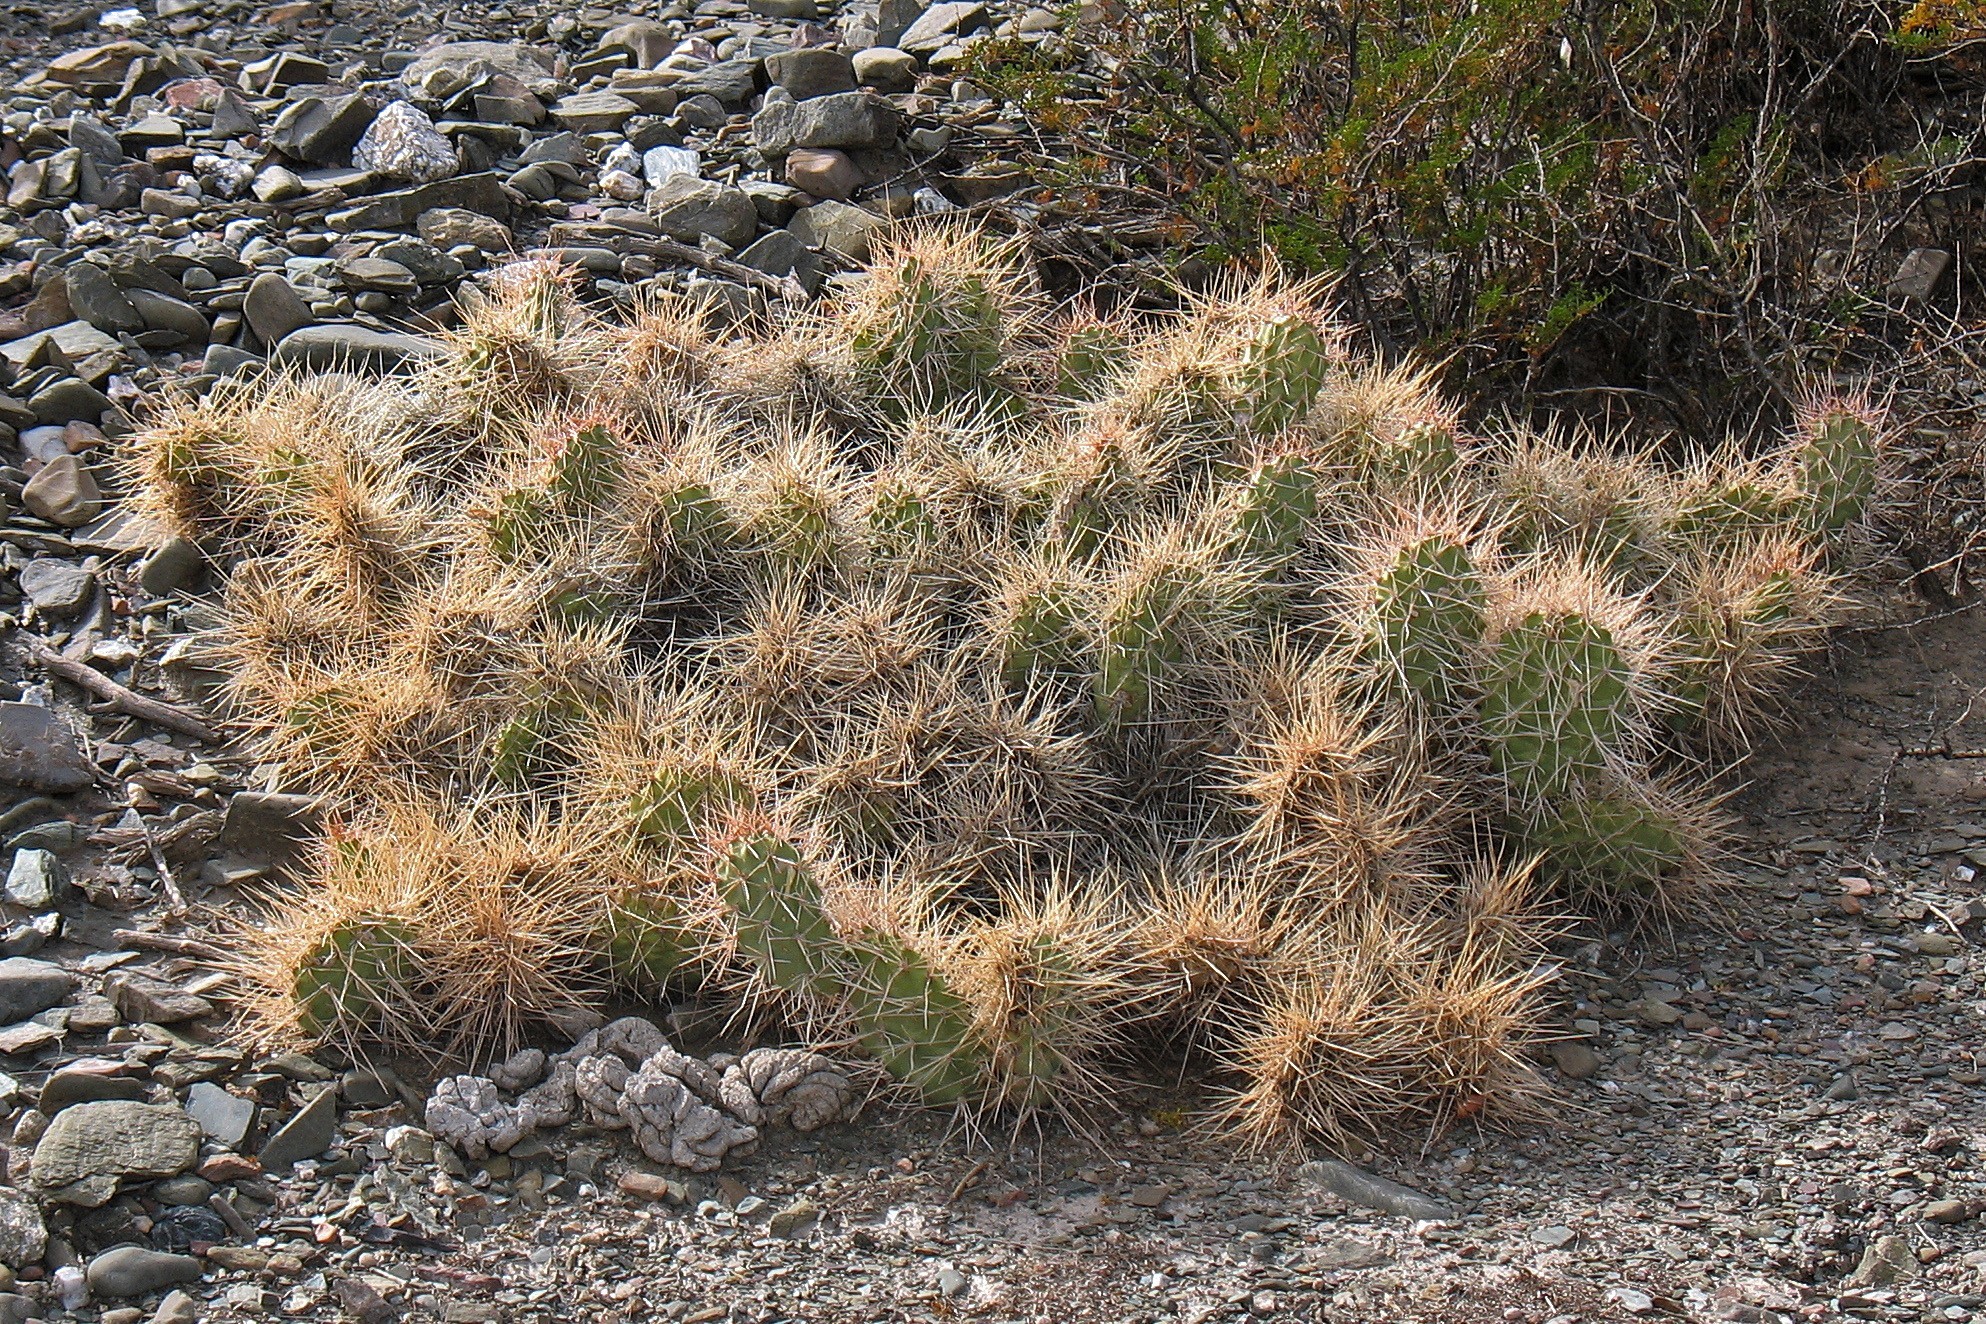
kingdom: Plantae
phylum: Tracheophyta
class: Magnoliopsida
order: Caryophyllales
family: Cactaceae
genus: Opuntia
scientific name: Opuntia sulphurea
